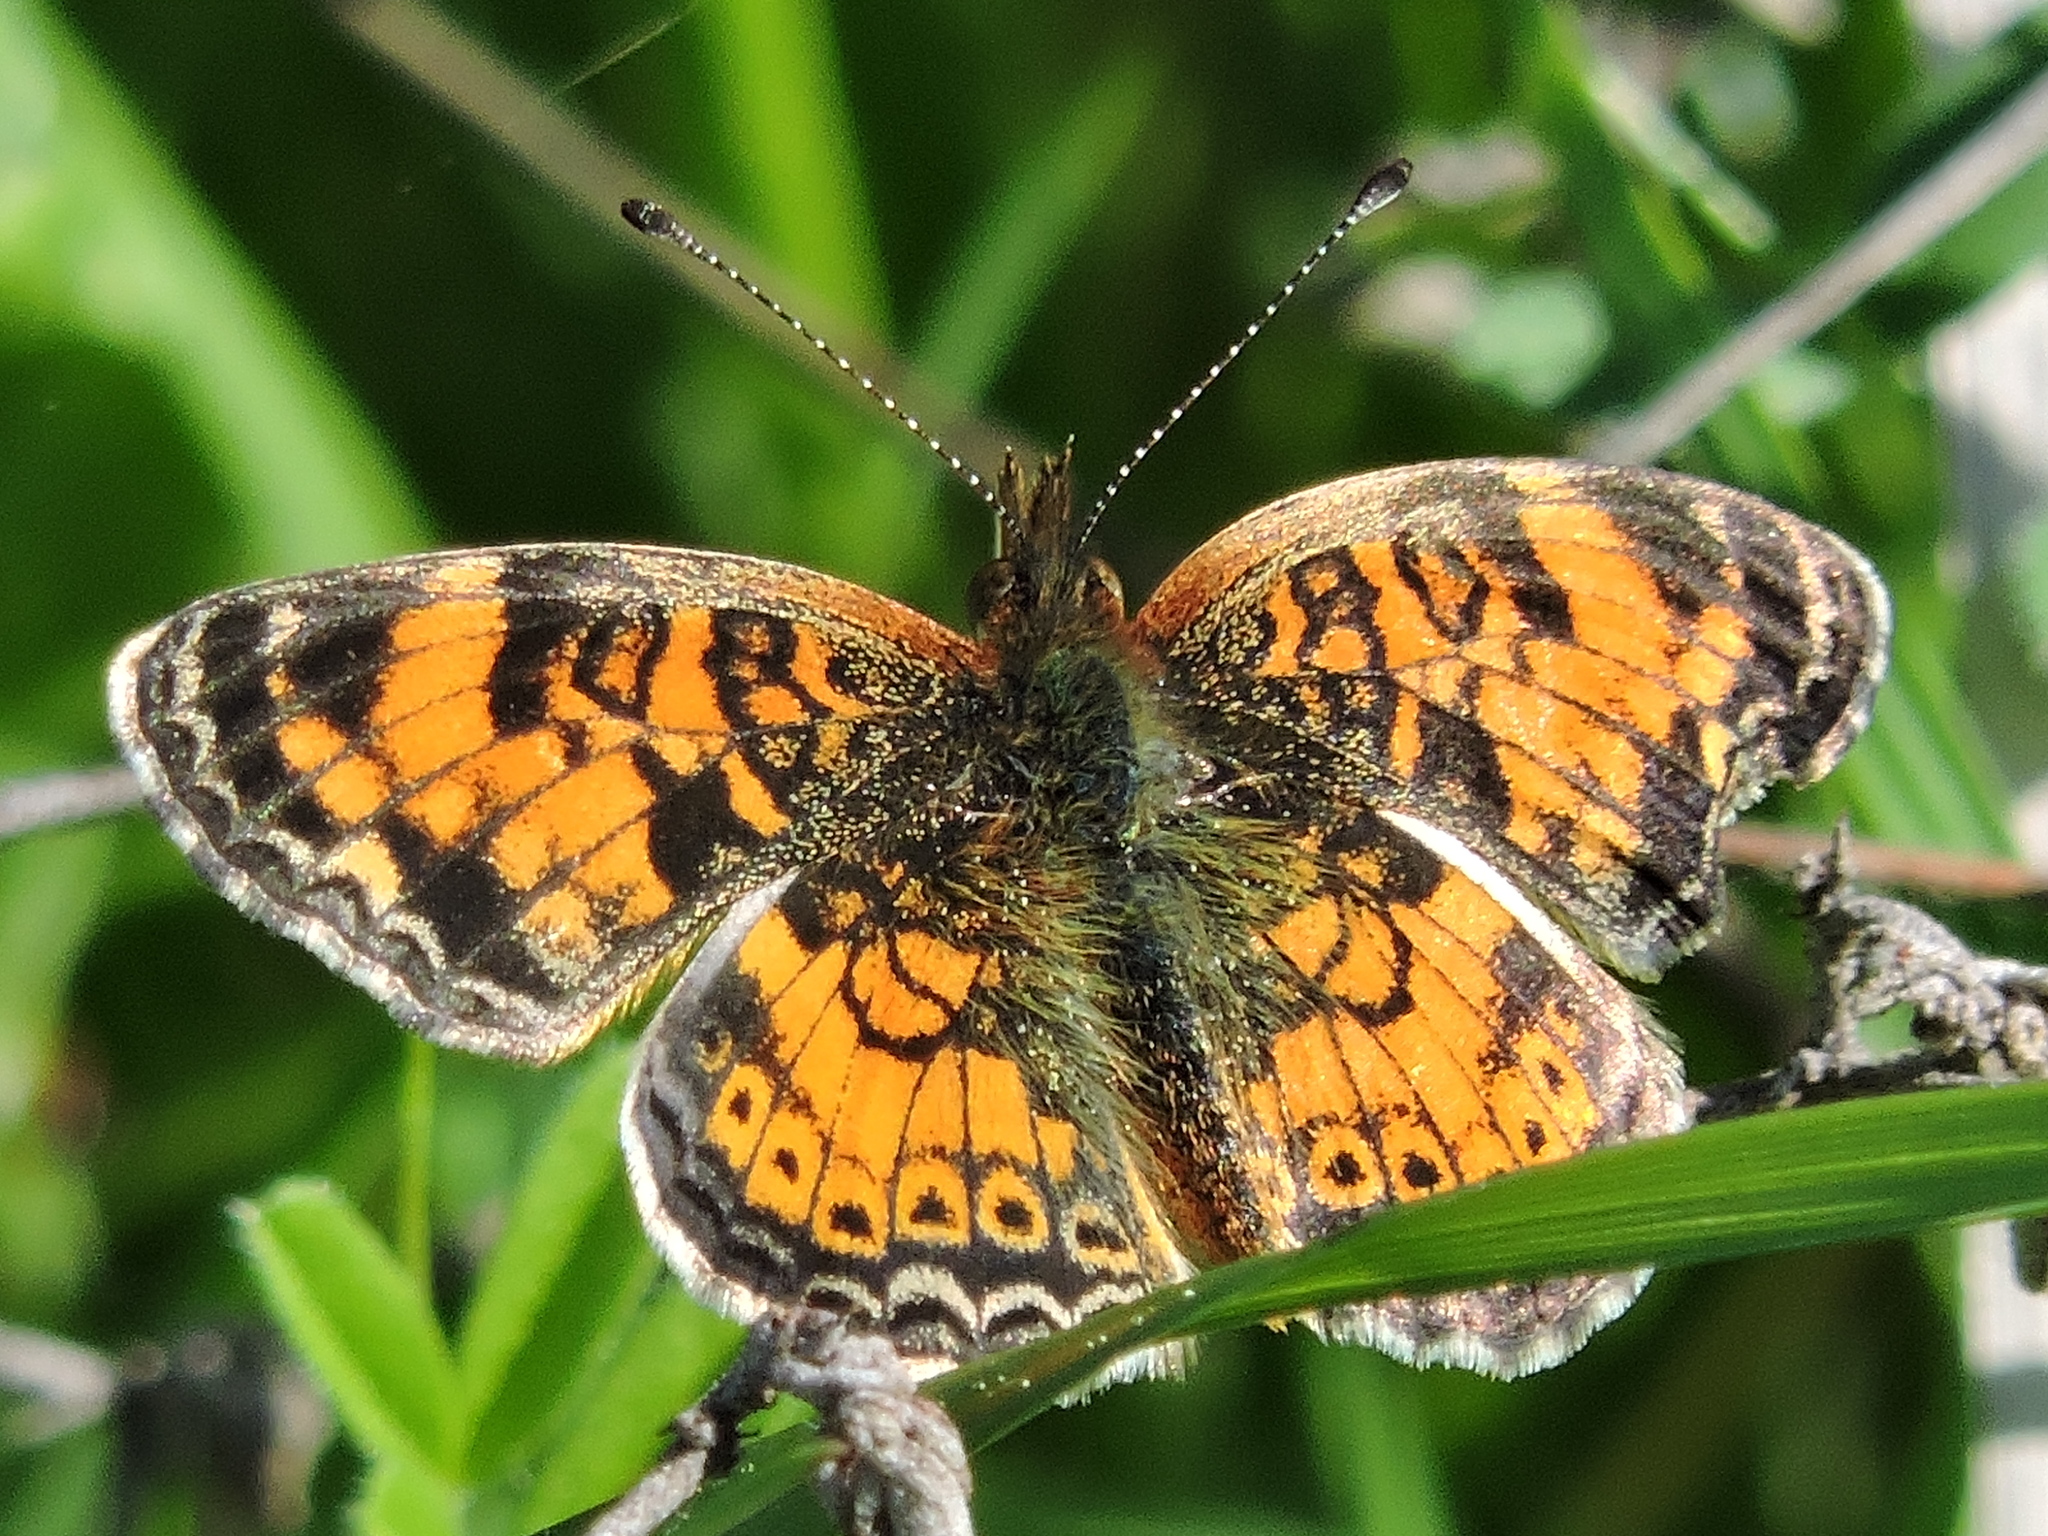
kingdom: Animalia
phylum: Arthropoda
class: Insecta
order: Lepidoptera
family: Nymphalidae
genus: Phyciodes
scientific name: Phyciodes tharos
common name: Pearl crescent
